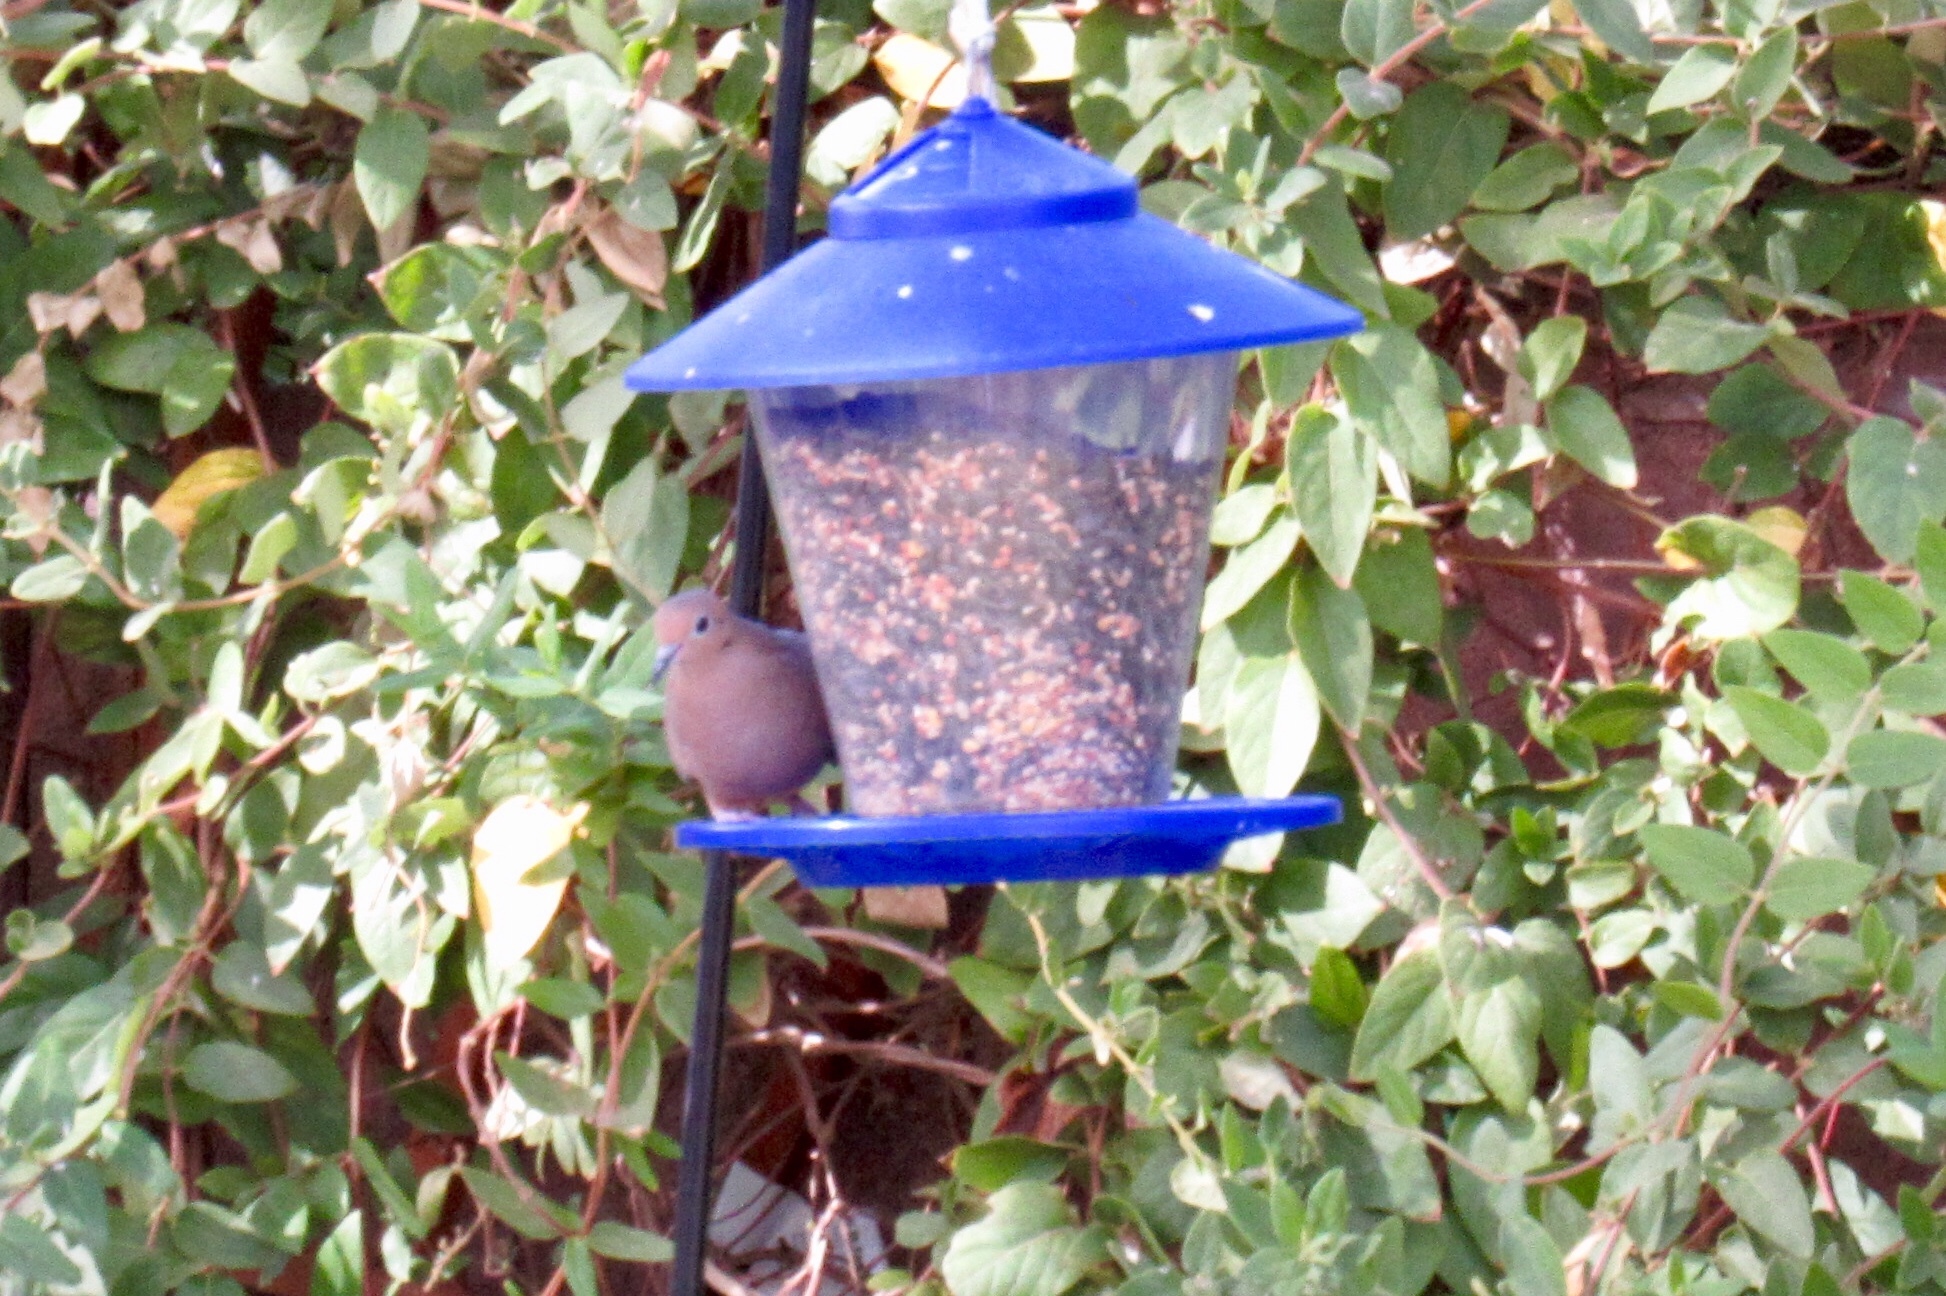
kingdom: Animalia
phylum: Chordata
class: Aves
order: Columbiformes
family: Columbidae
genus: Zenaida
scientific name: Zenaida macroura
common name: Mourning dove
